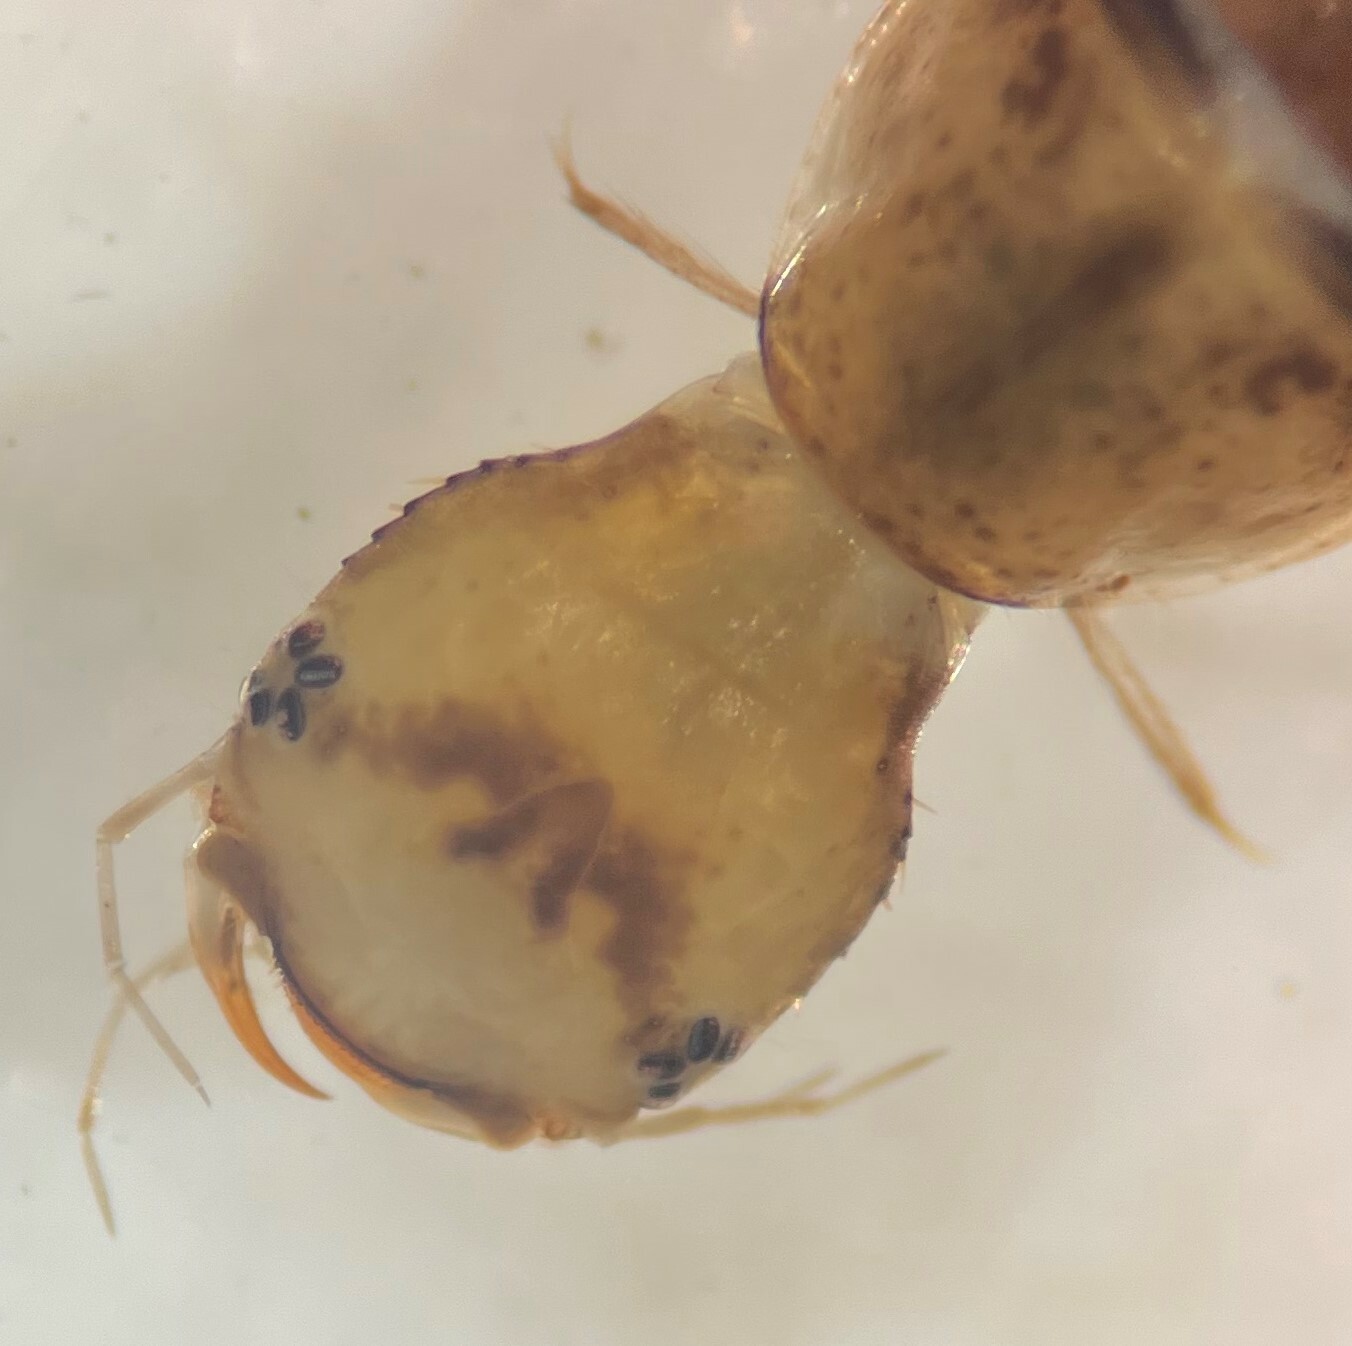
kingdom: Animalia
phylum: Arthropoda
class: Insecta
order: Coleoptera
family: Dytiscidae
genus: Laccophilus
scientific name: Laccophilus
